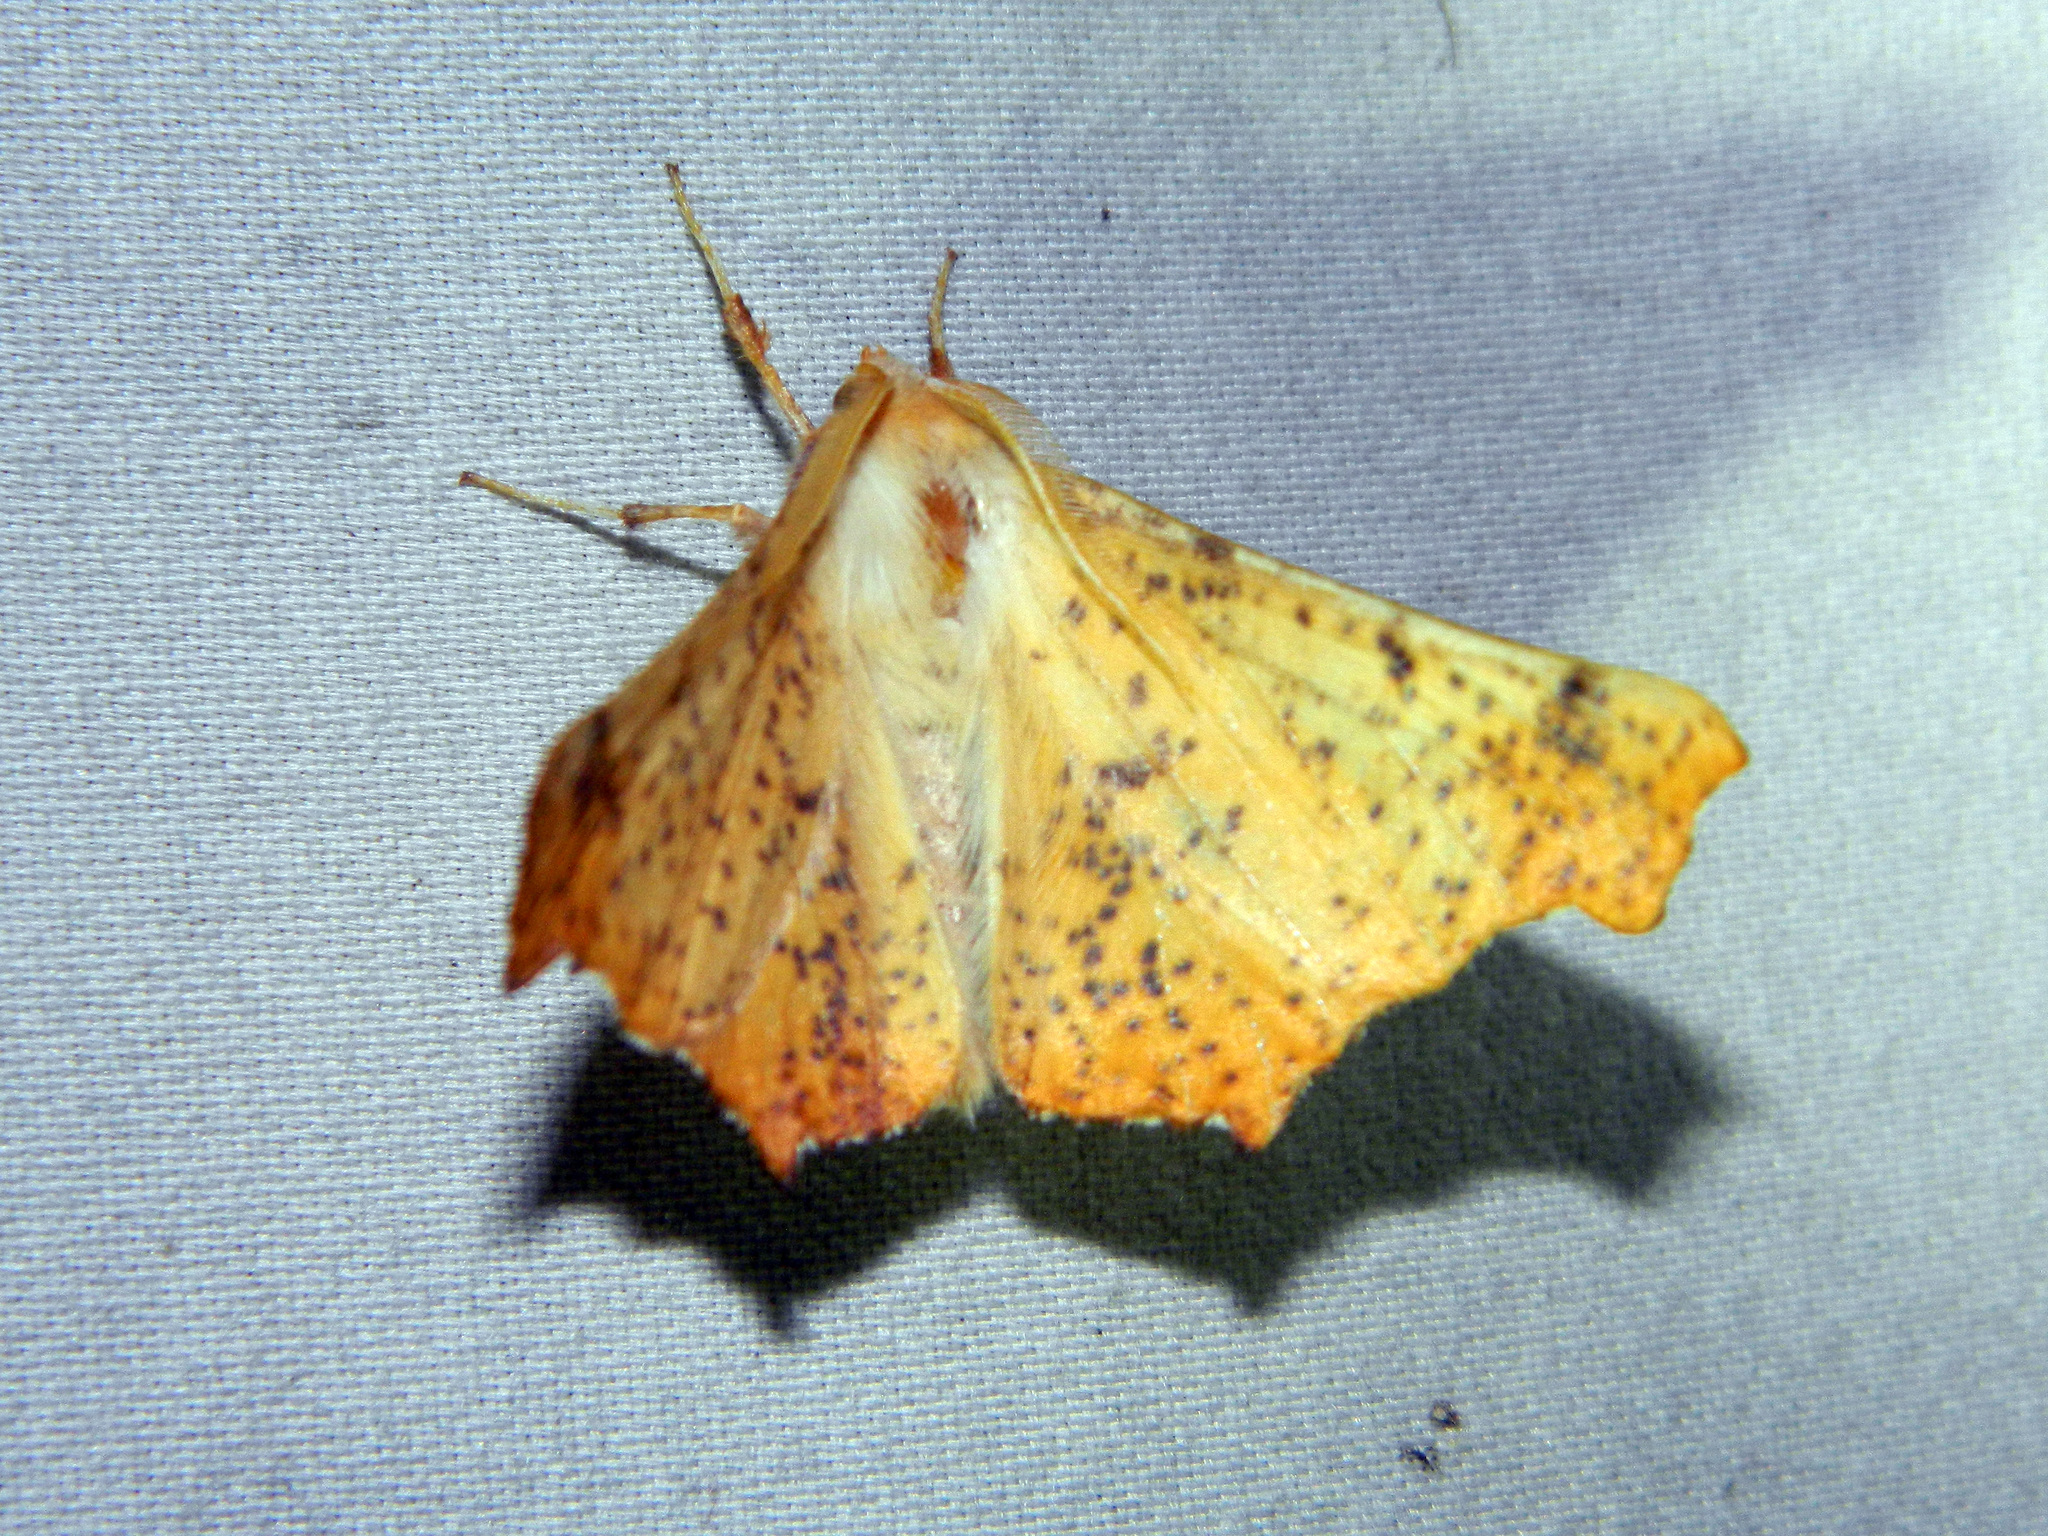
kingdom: Animalia
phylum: Arthropoda
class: Insecta
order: Lepidoptera
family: Geometridae
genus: Ennomos
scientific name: Ennomos magnaria
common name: Maple spanworm
